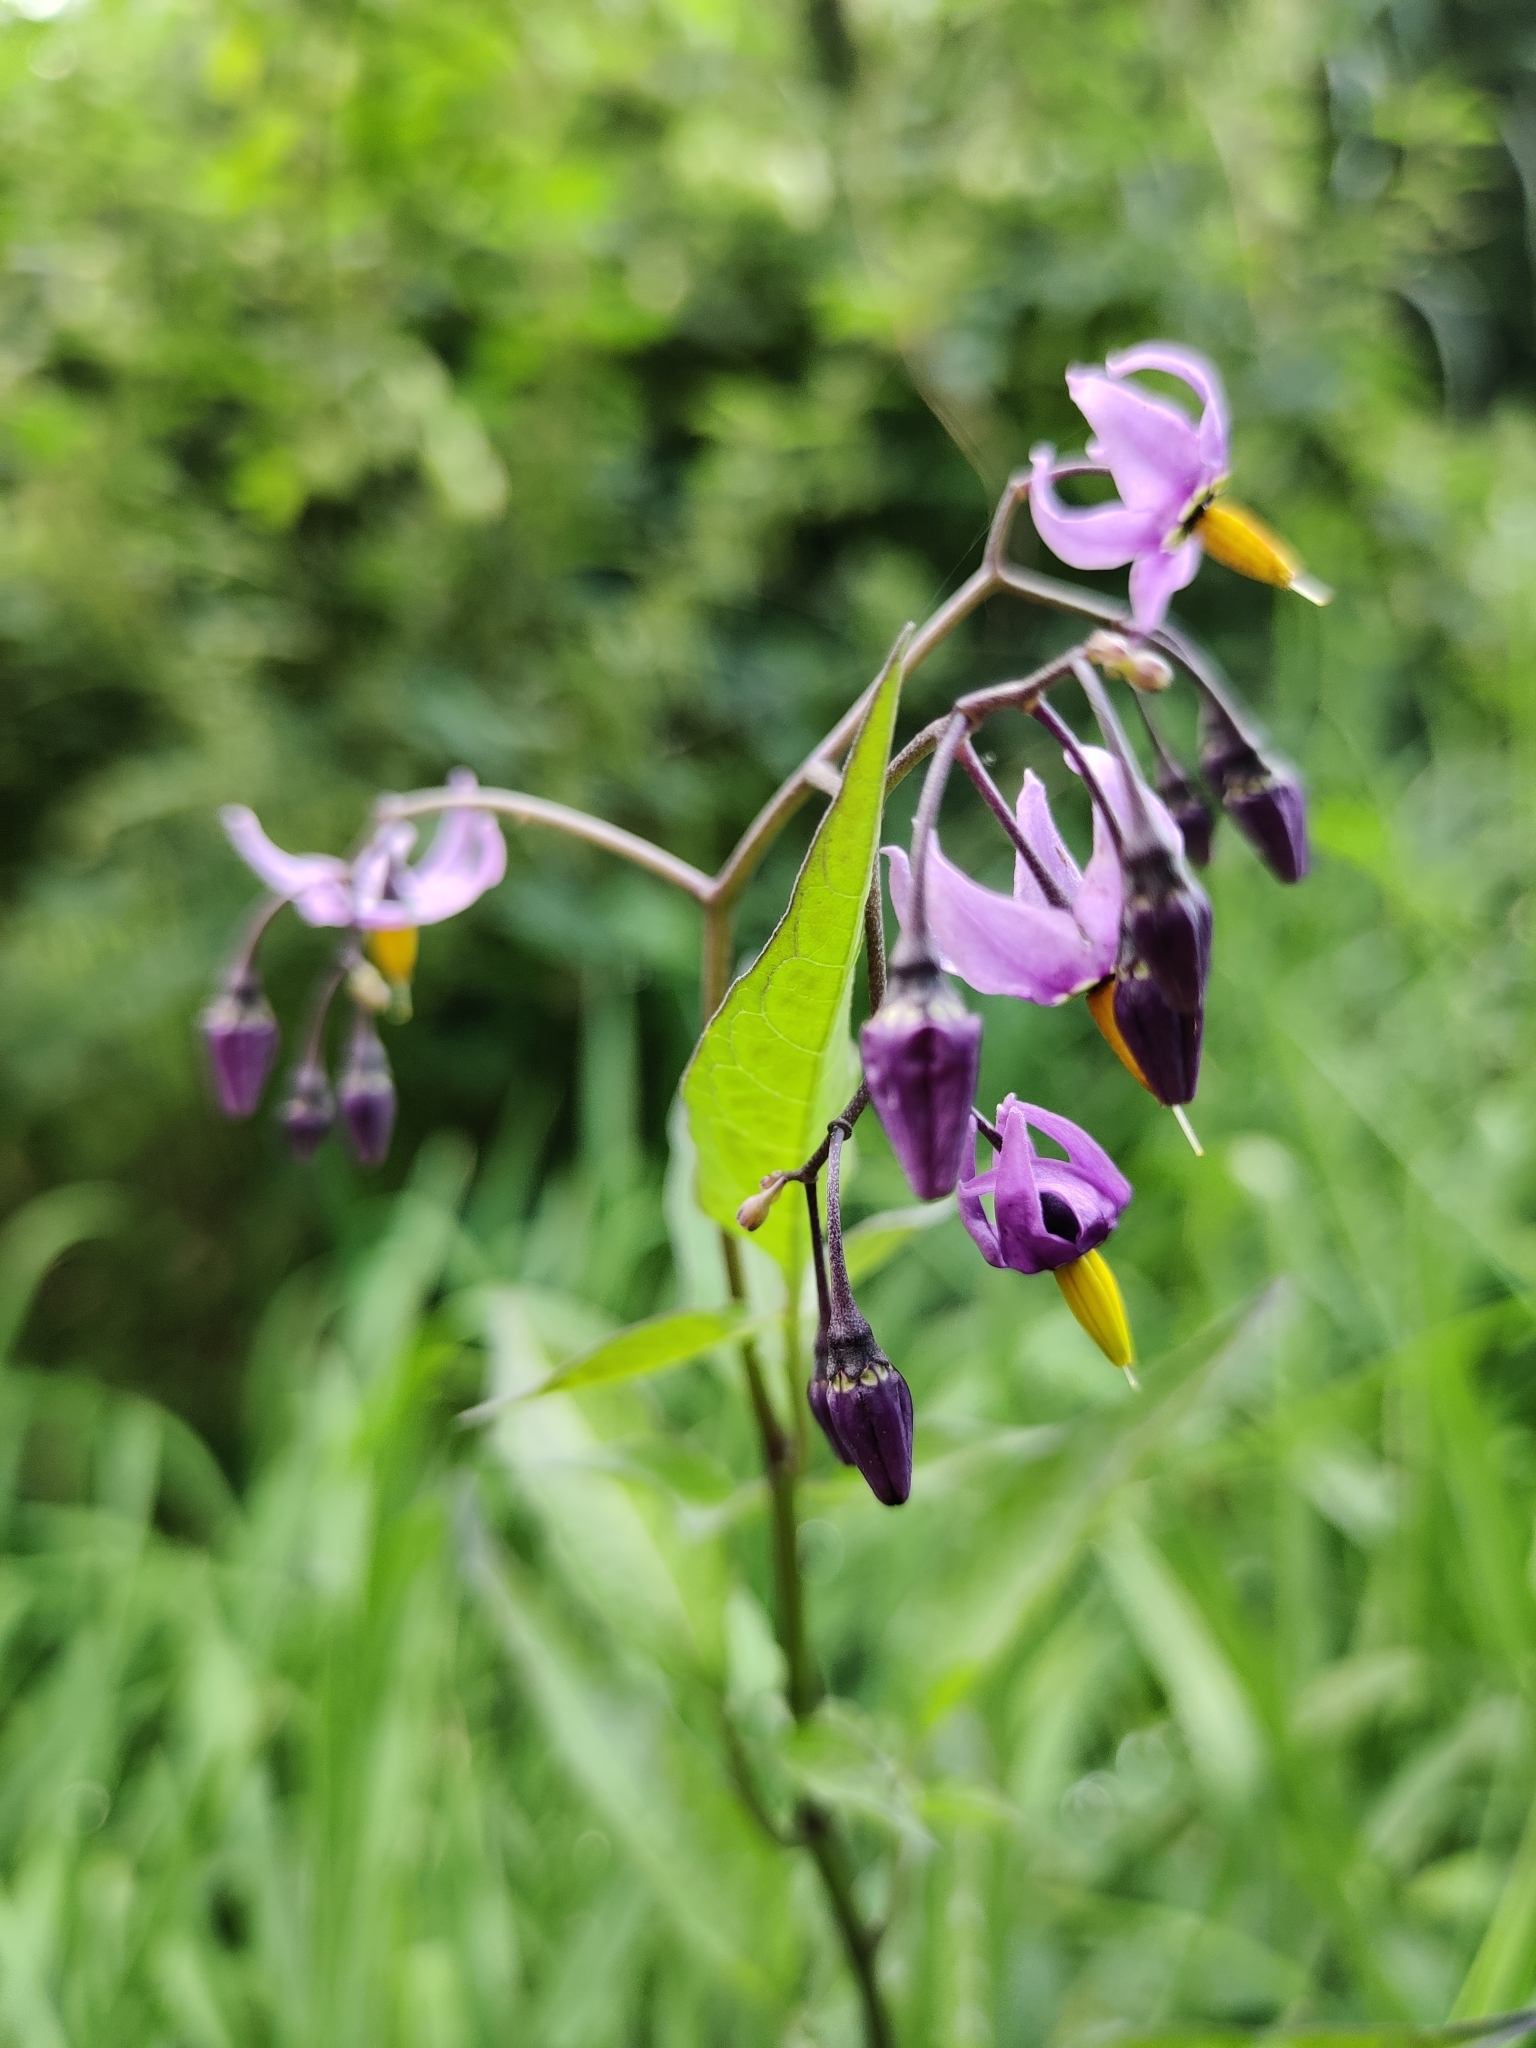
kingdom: Plantae
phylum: Tracheophyta
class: Magnoliopsida
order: Solanales
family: Solanaceae
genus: Solanum
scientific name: Solanum dulcamara
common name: Climbing nightshade
